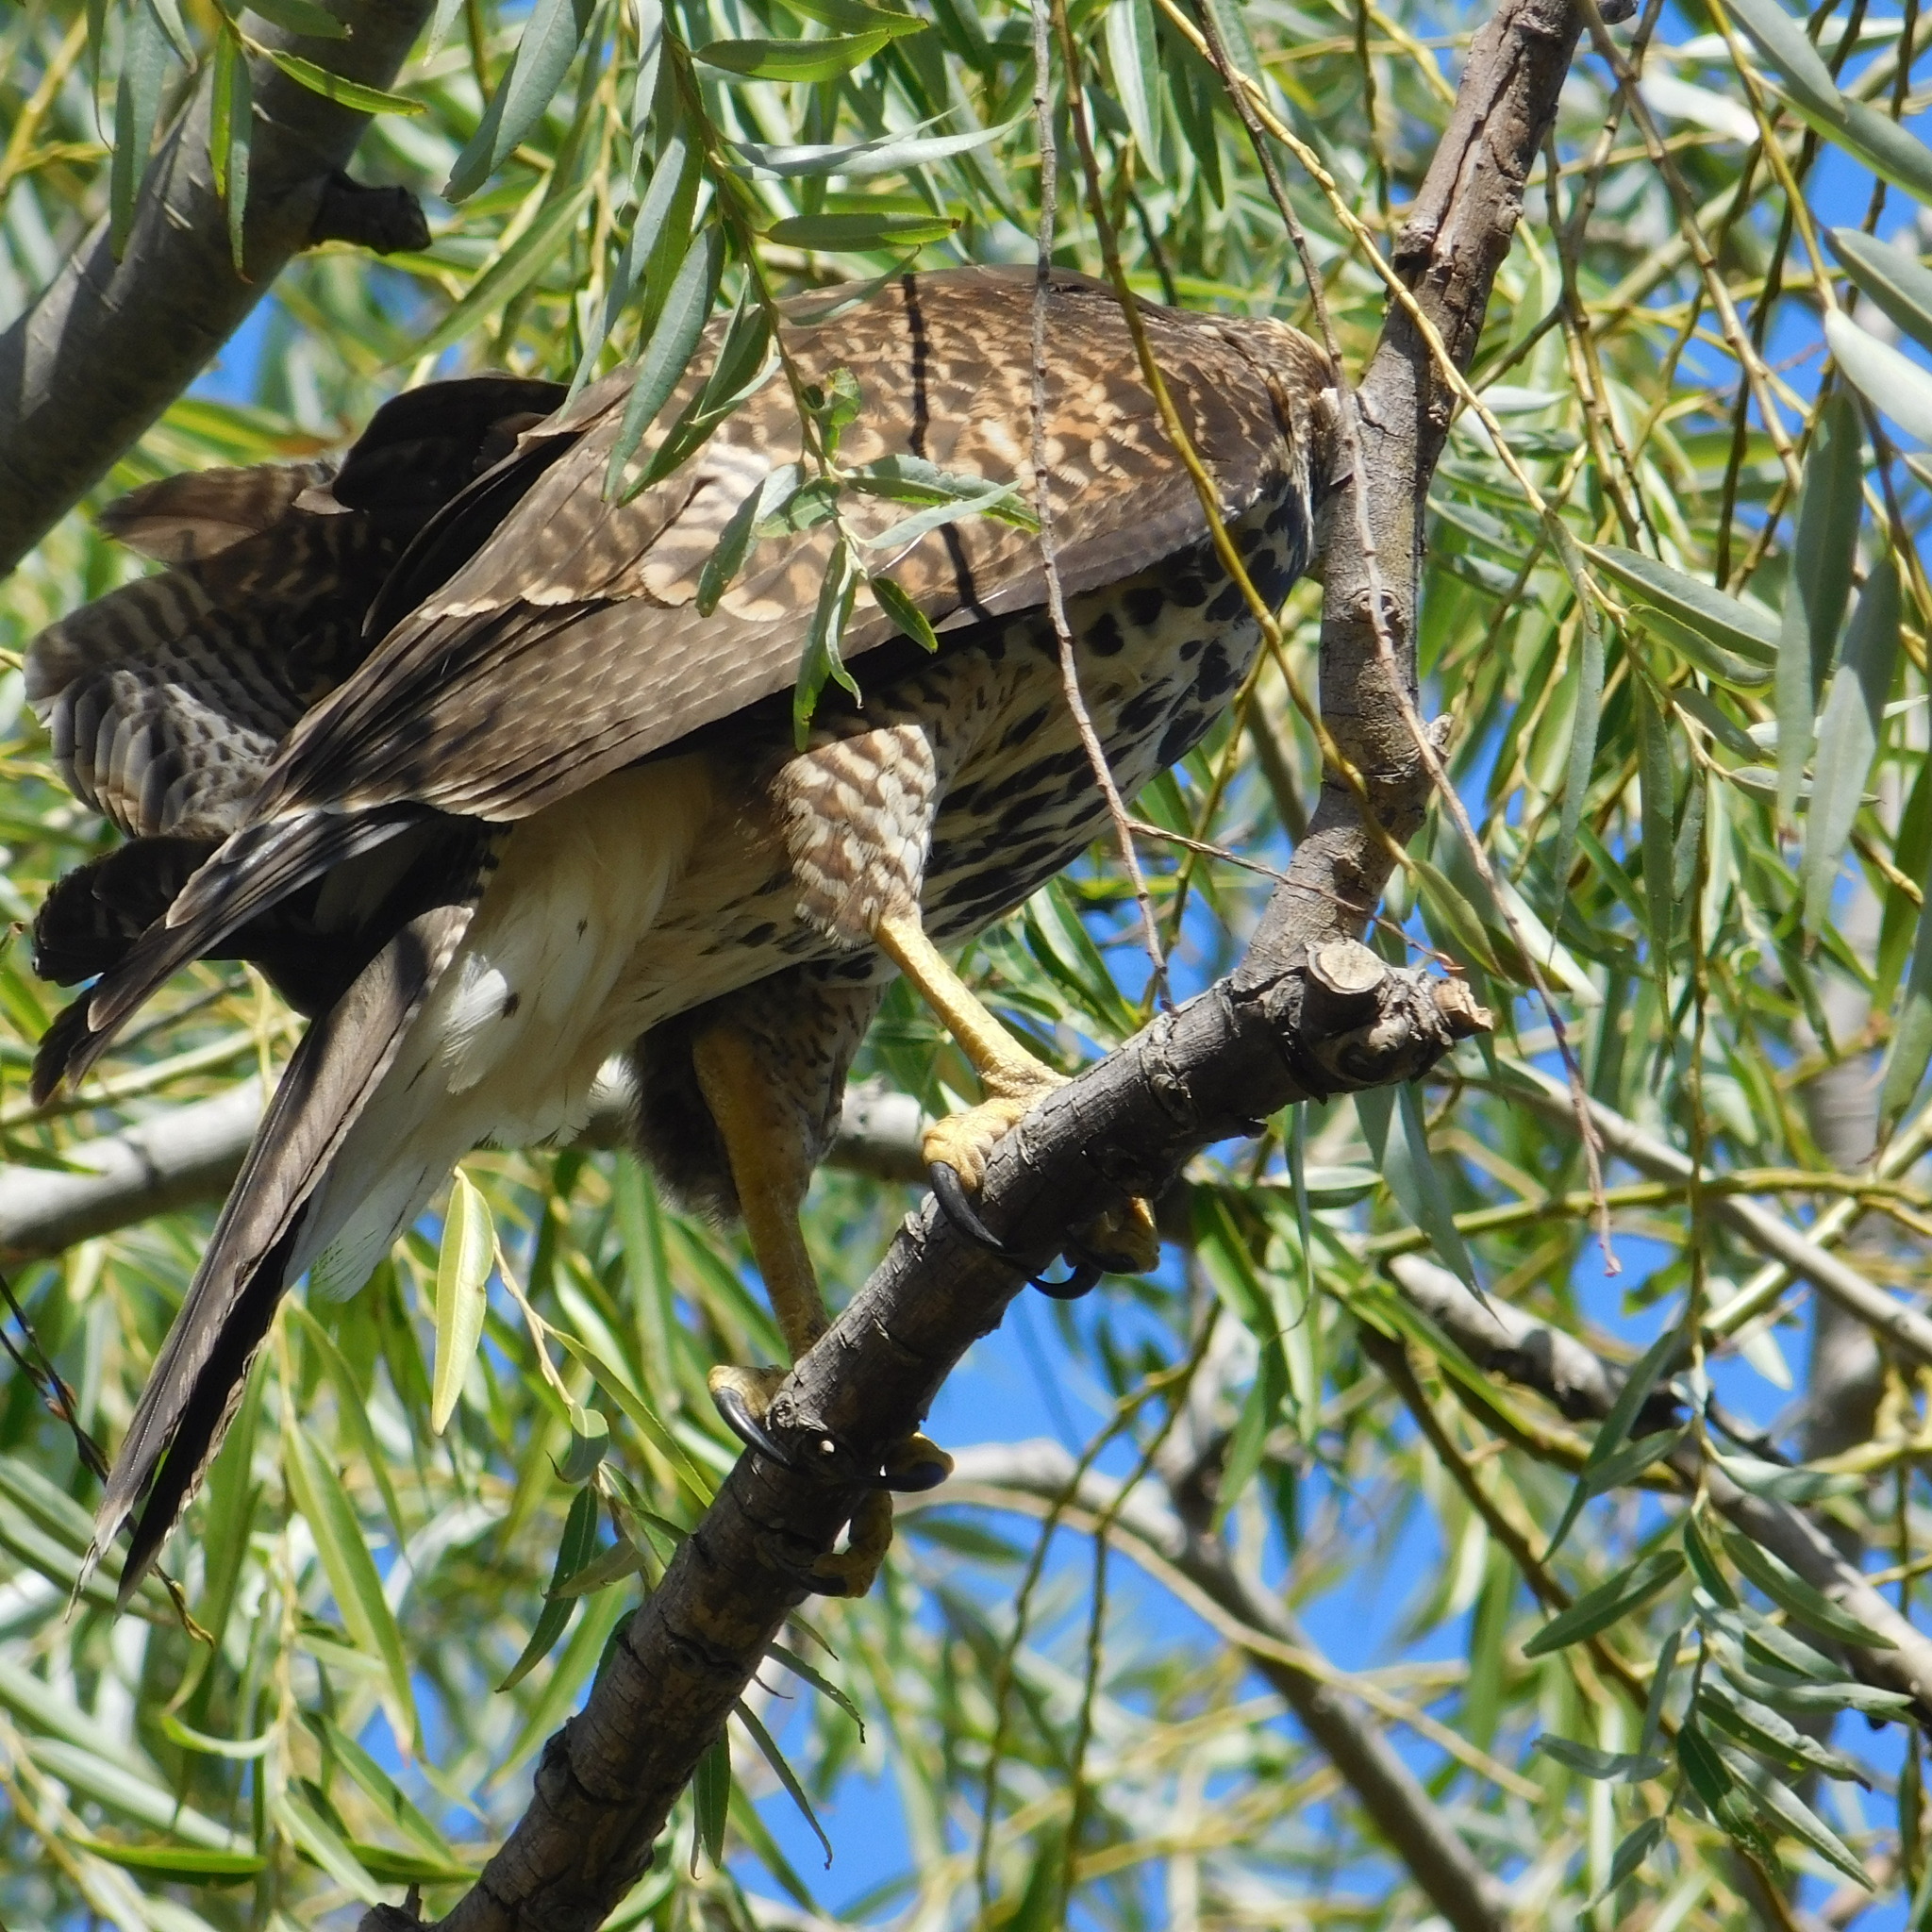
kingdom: Animalia
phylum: Chordata
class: Aves
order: Accipitriformes
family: Accipitridae
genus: Parabuteo
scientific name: Parabuteo unicinctus
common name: Harris's hawk
